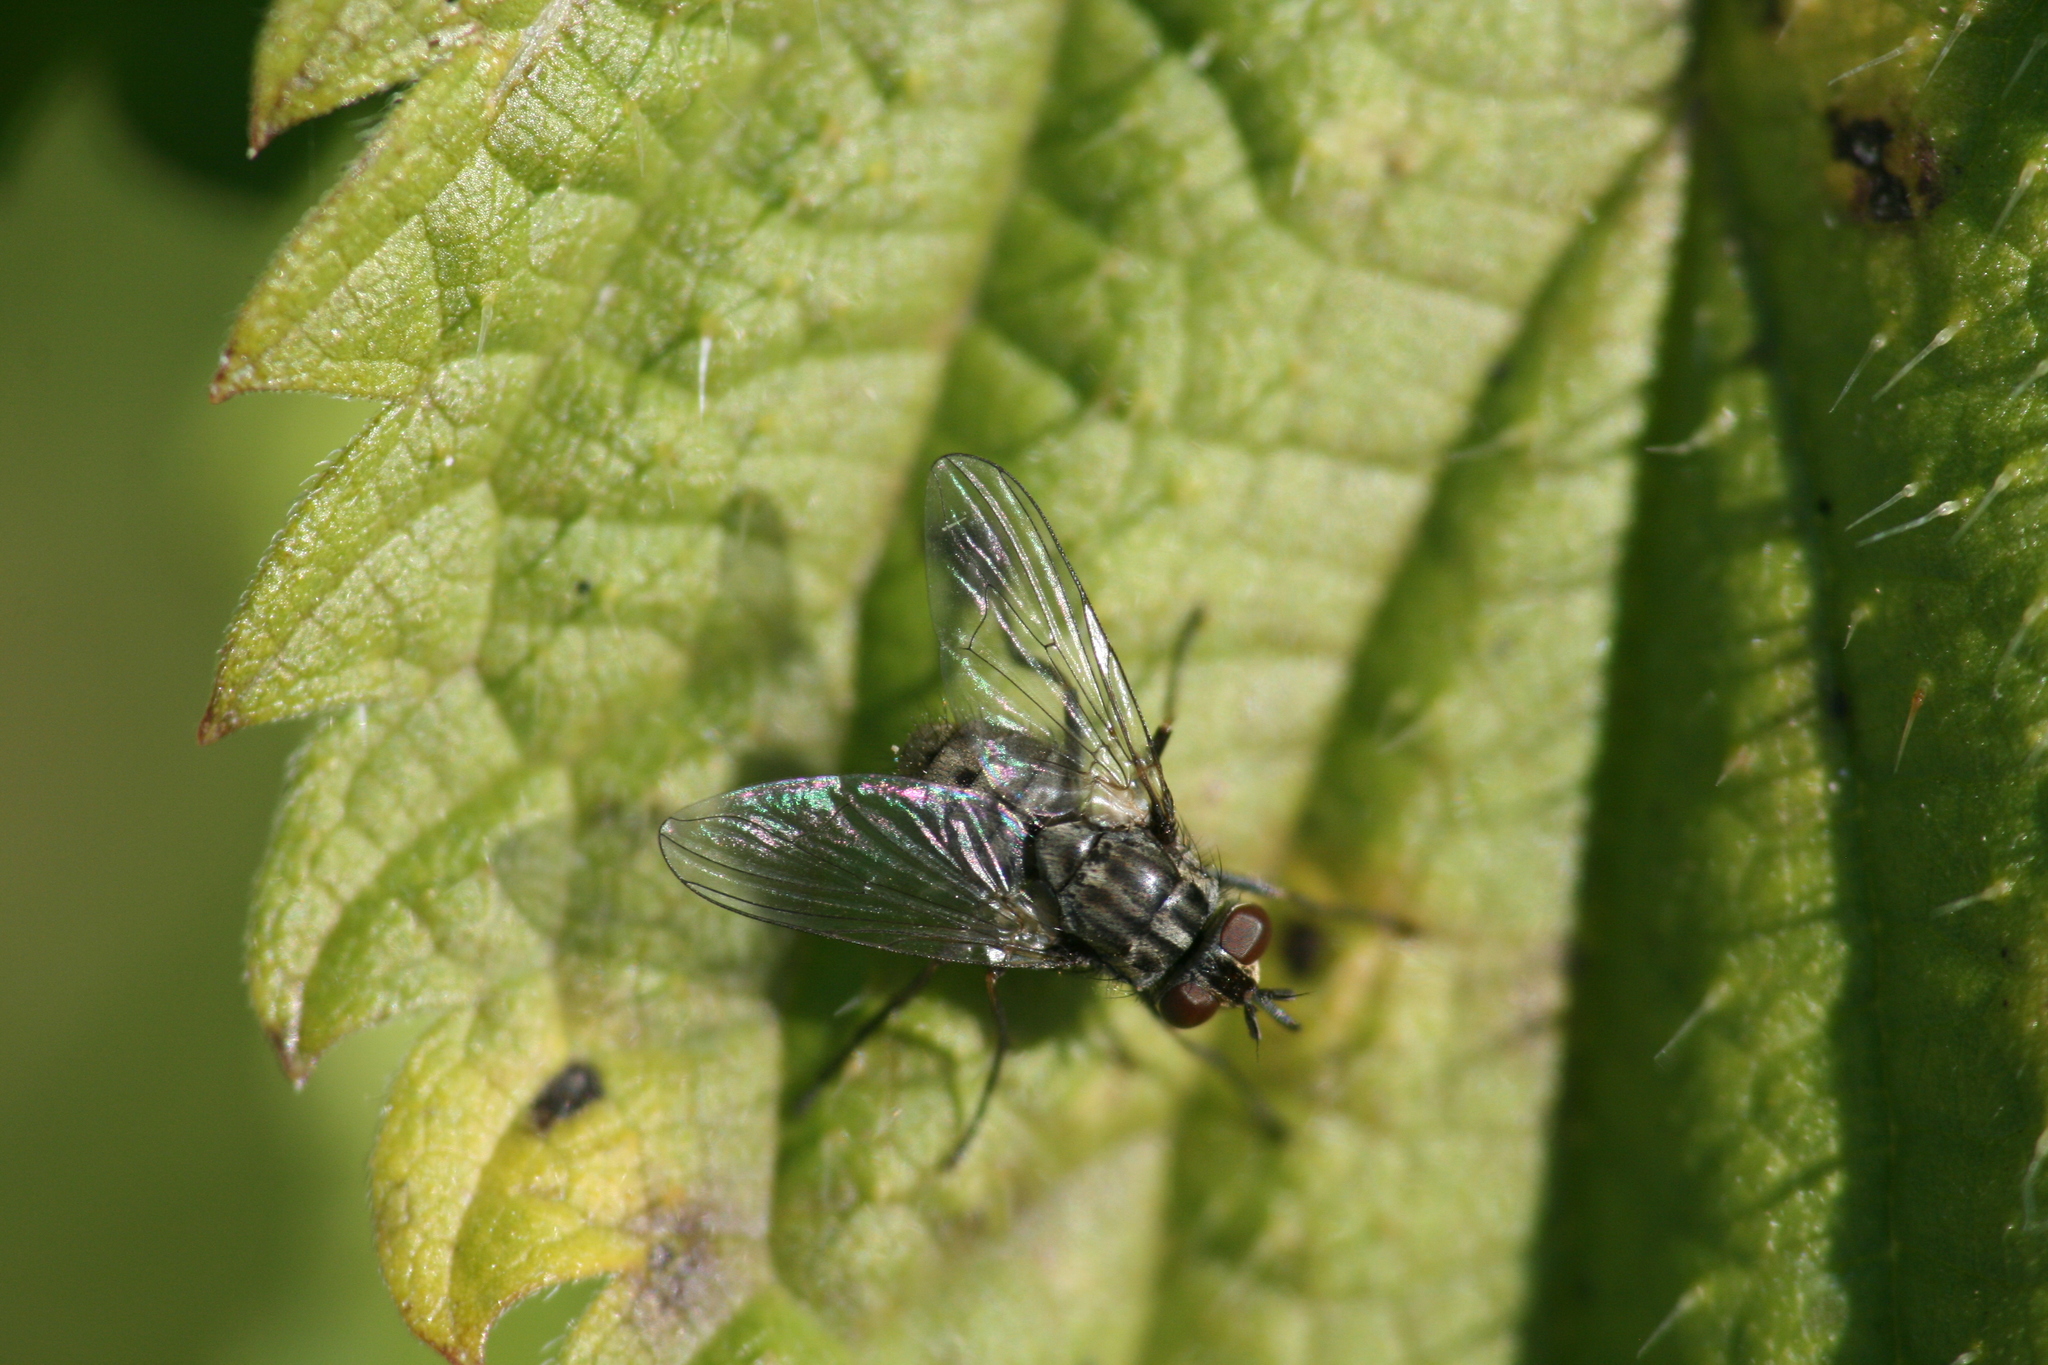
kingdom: Animalia
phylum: Arthropoda
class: Insecta
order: Diptera
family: Muscidae
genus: Stomoxys
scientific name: Stomoxys calcitrans
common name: Stable fly
